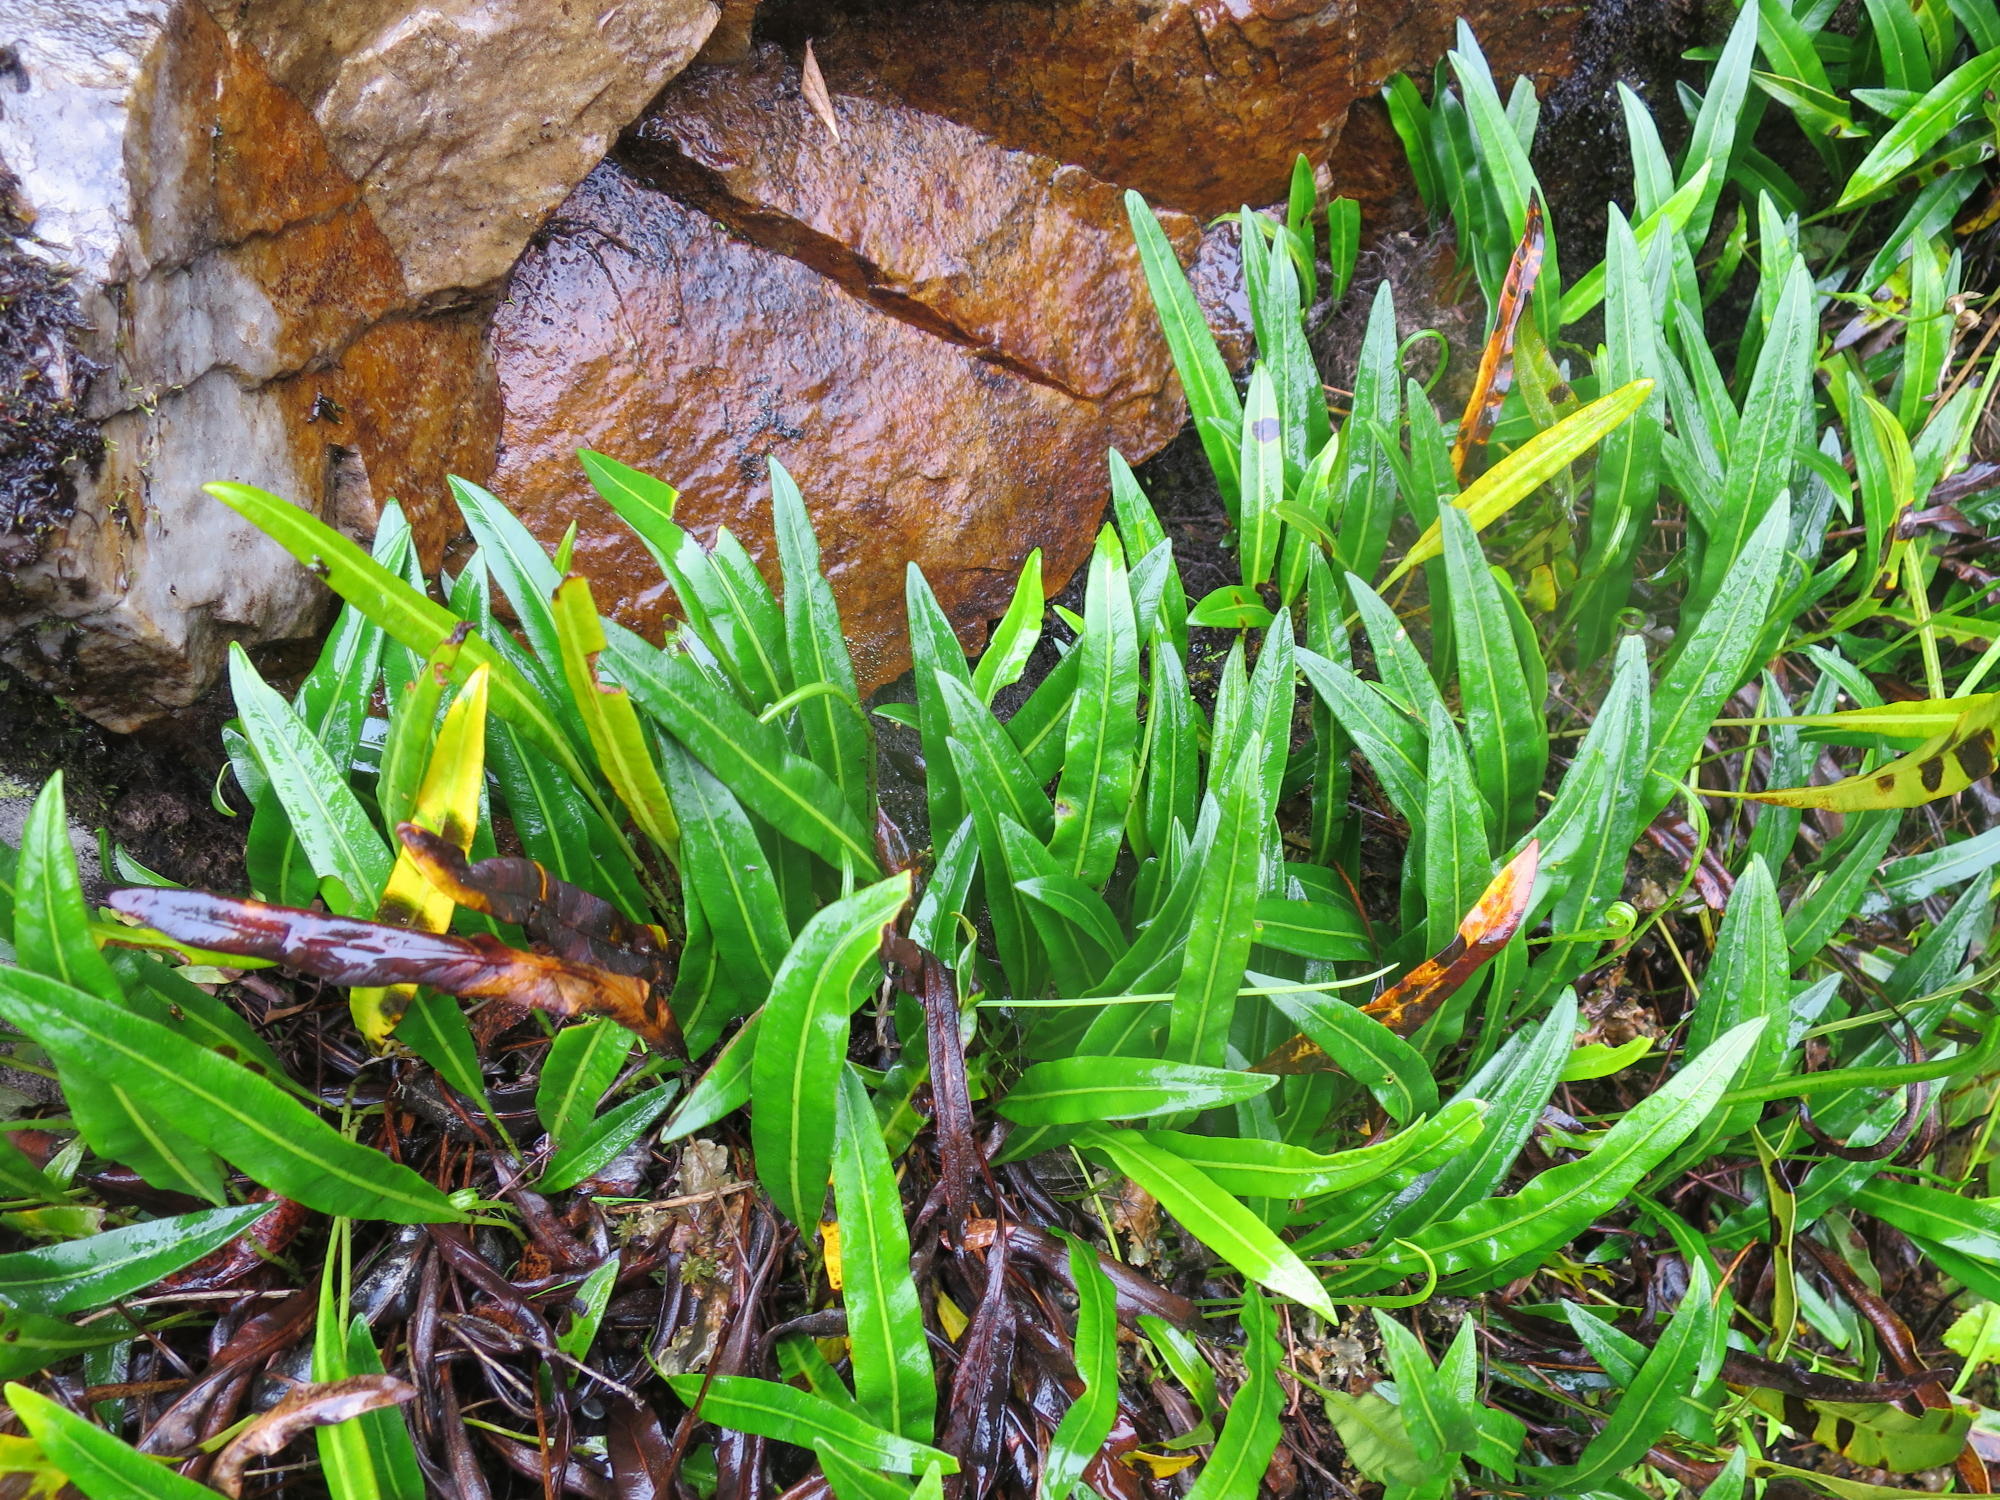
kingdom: Plantae
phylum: Tracheophyta
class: Polypodiopsida
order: Polypodiales
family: Dryopteridaceae
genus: Elaphoglossum
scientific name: Elaphoglossum acrostichoides
